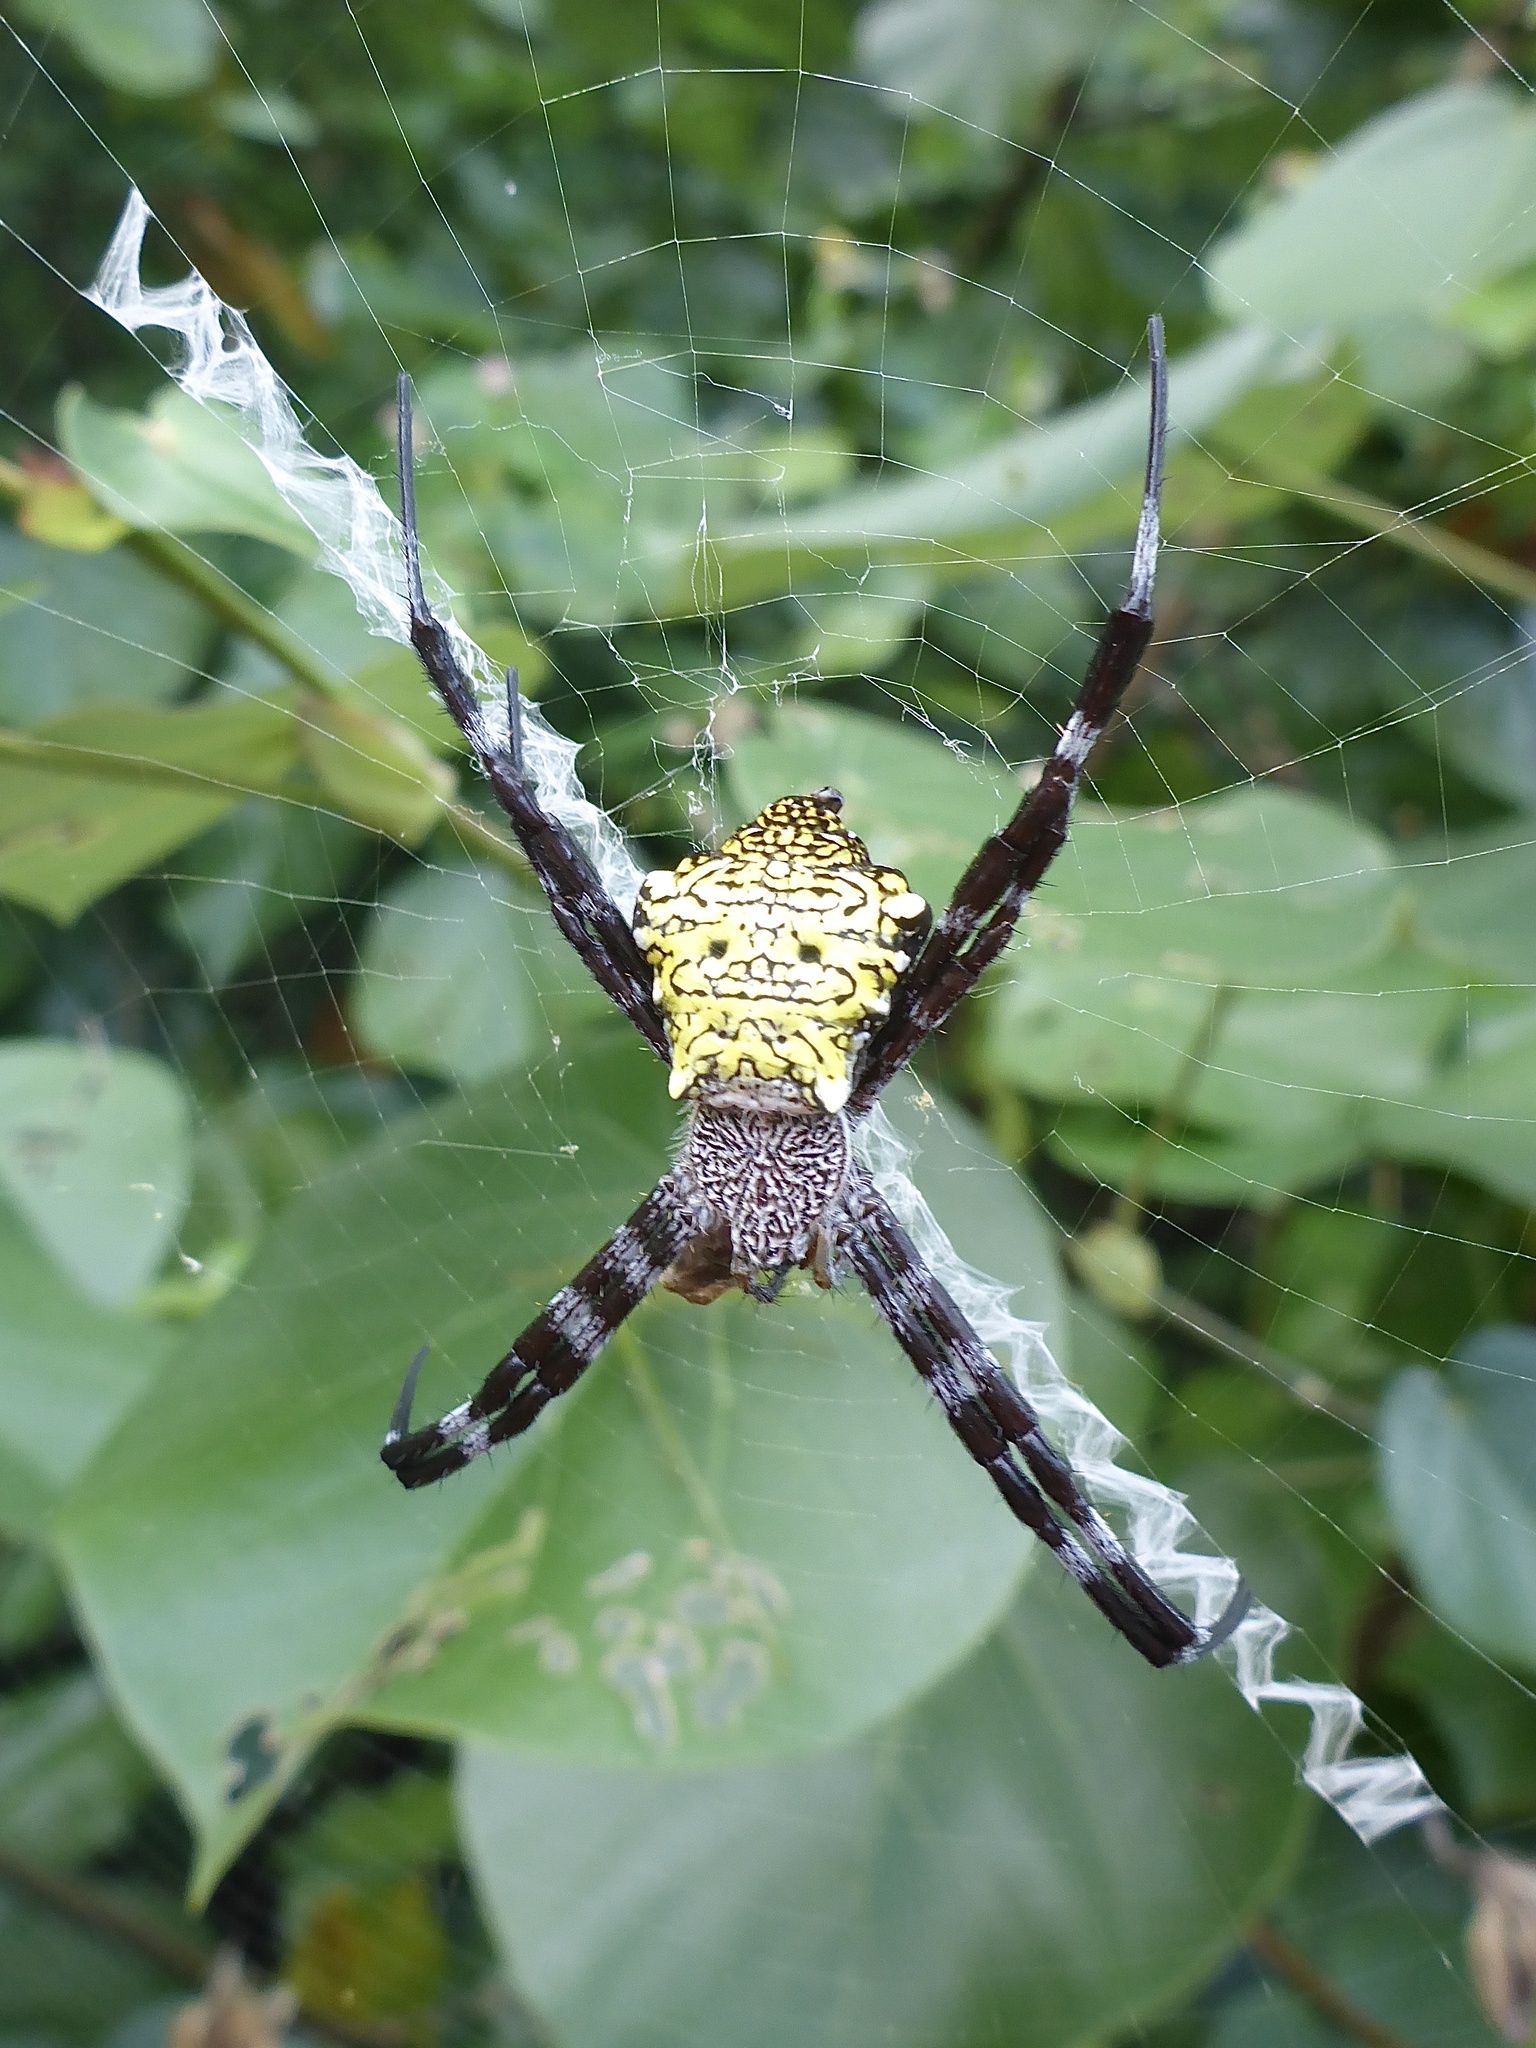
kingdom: Animalia
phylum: Arthropoda
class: Arachnida
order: Araneae
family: Araneidae
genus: Argiope
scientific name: Argiope appensa
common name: Garden spider
